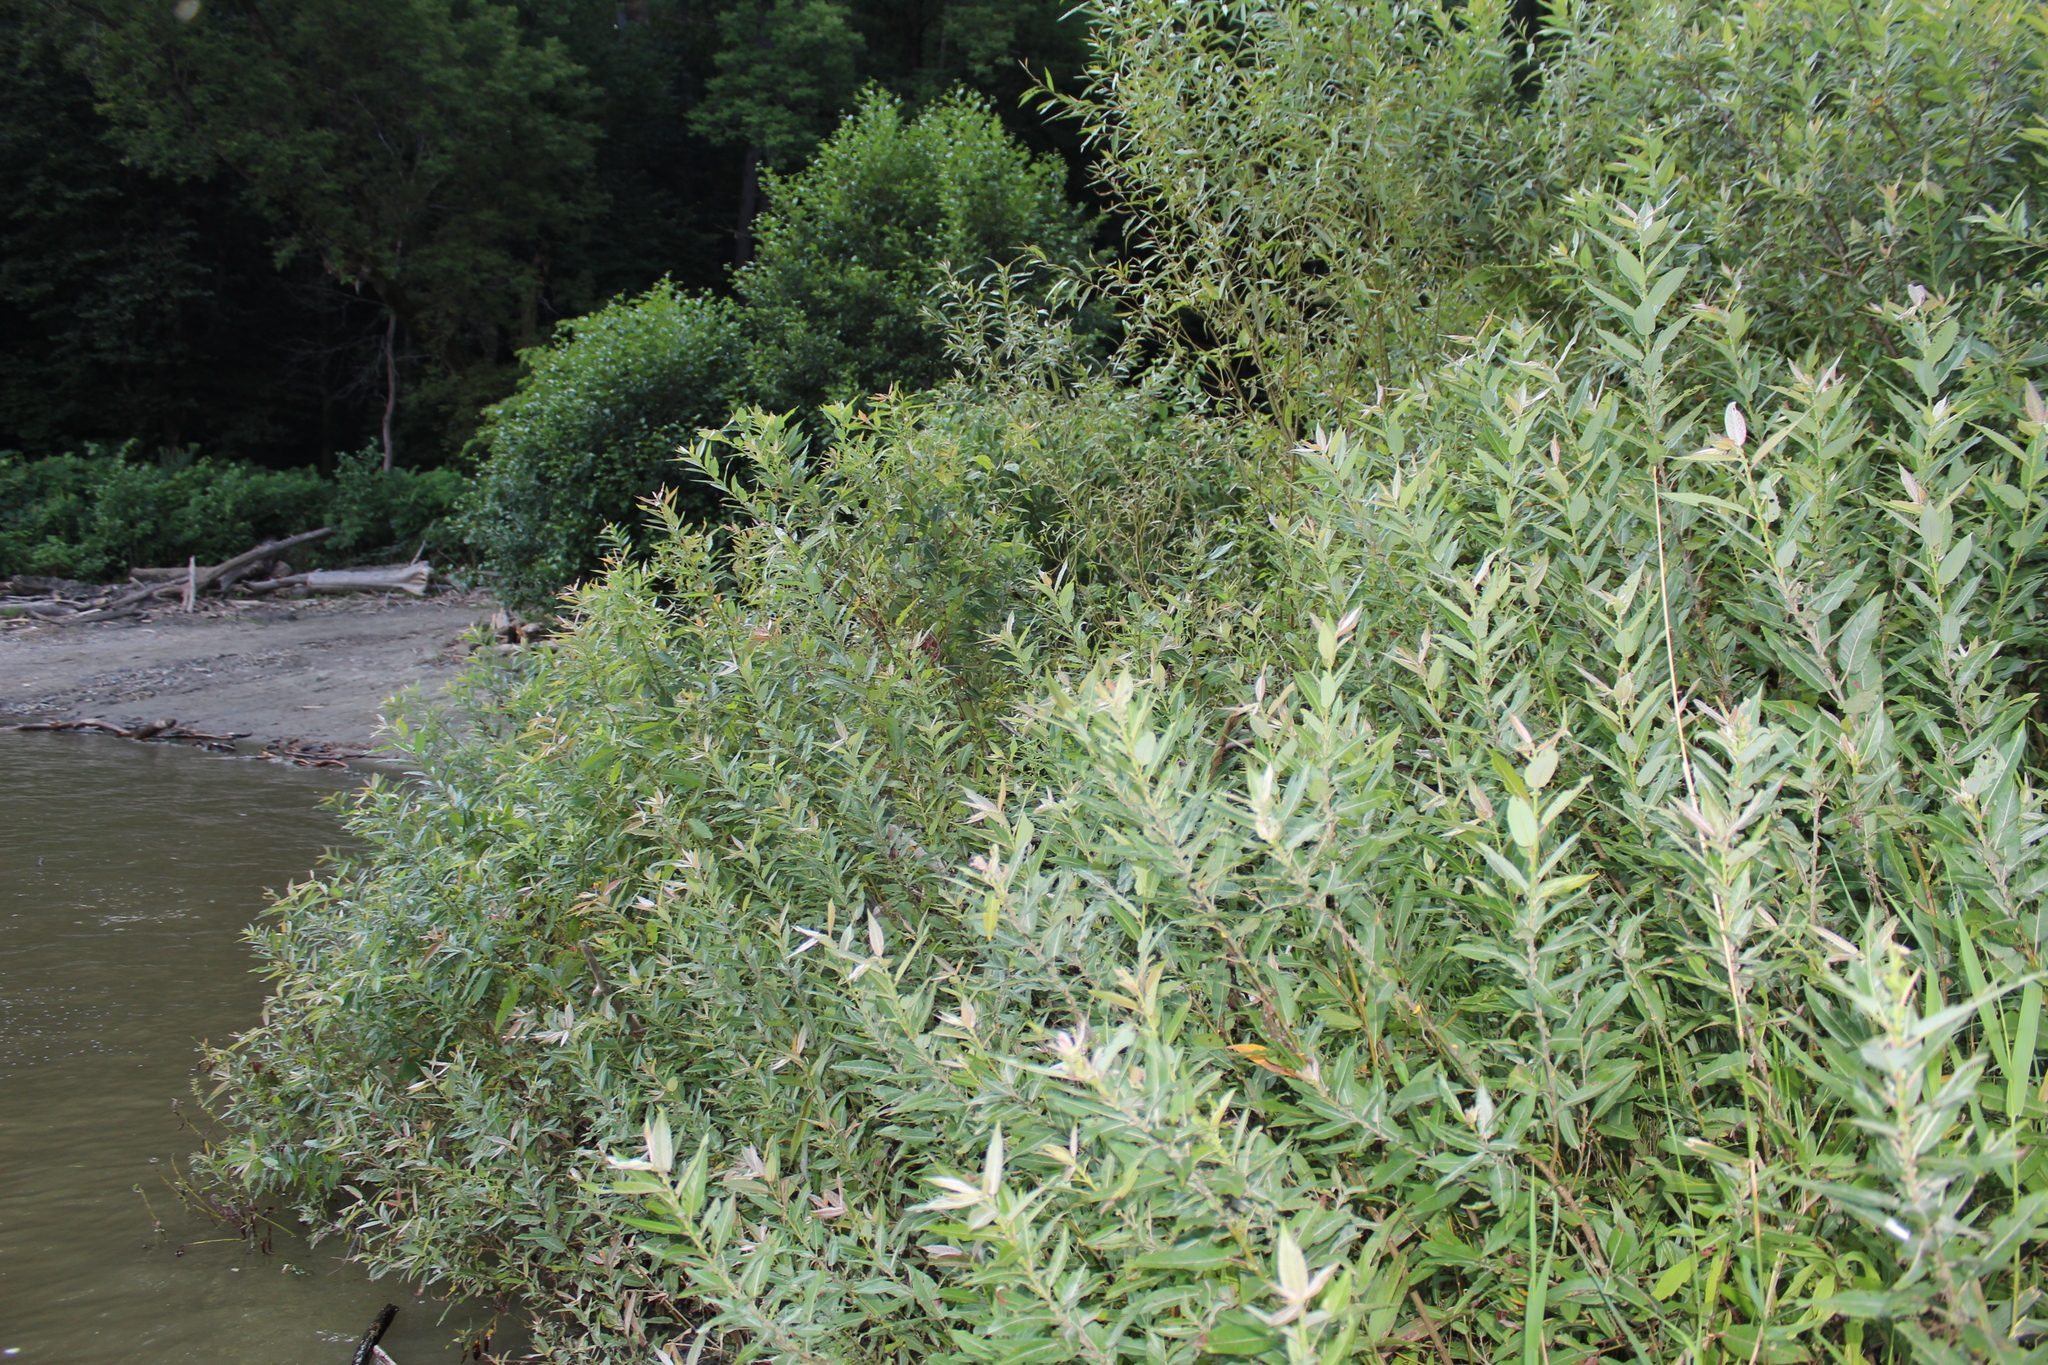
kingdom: Plantae
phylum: Tracheophyta
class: Magnoliopsida
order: Malpighiales
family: Salicaceae
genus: Salix
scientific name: Salix eriocephala
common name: Heart-leaved willow
